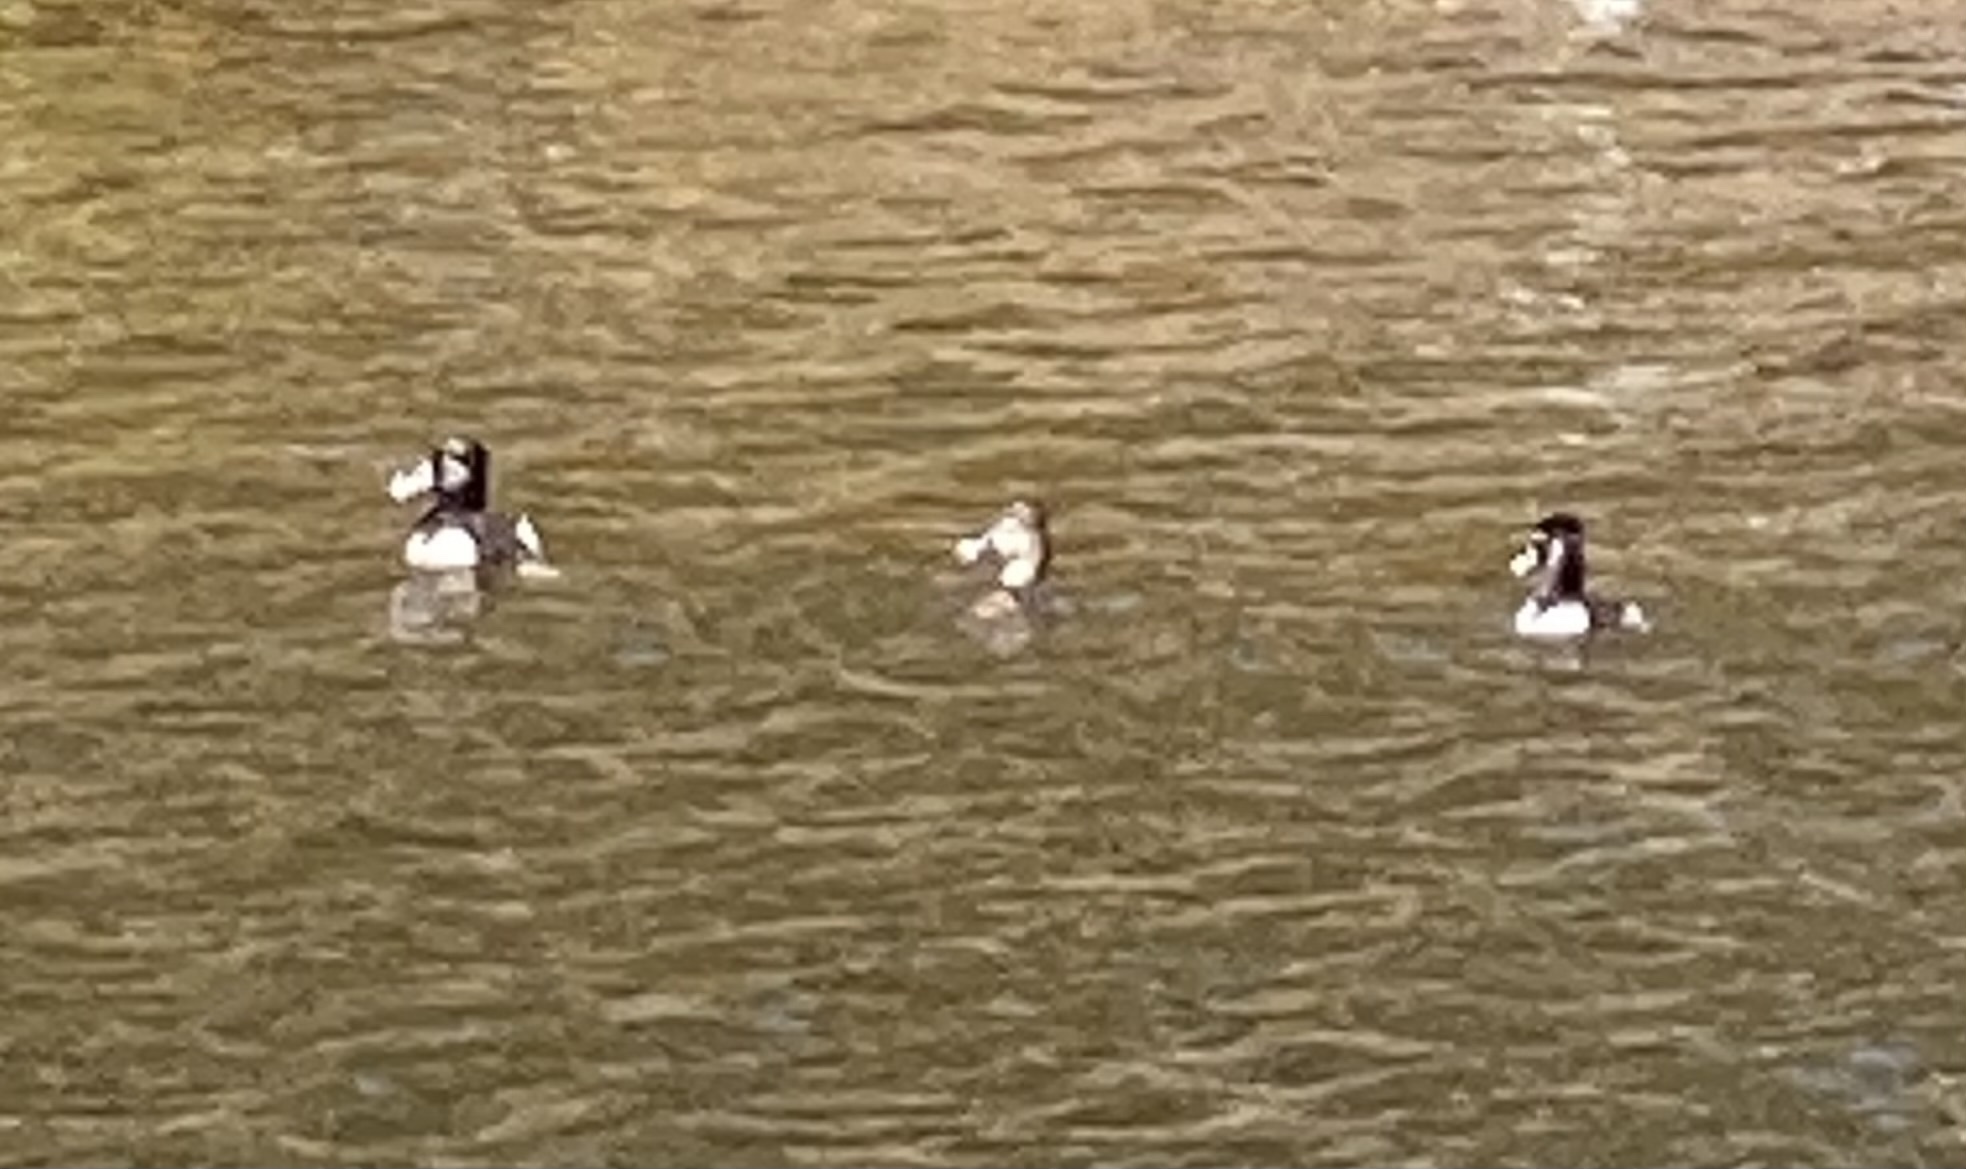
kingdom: Animalia
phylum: Chordata
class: Aves
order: Anseriformes
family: Anatidae
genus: Aythya
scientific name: Aythya collaris
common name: Ring-necked duck
